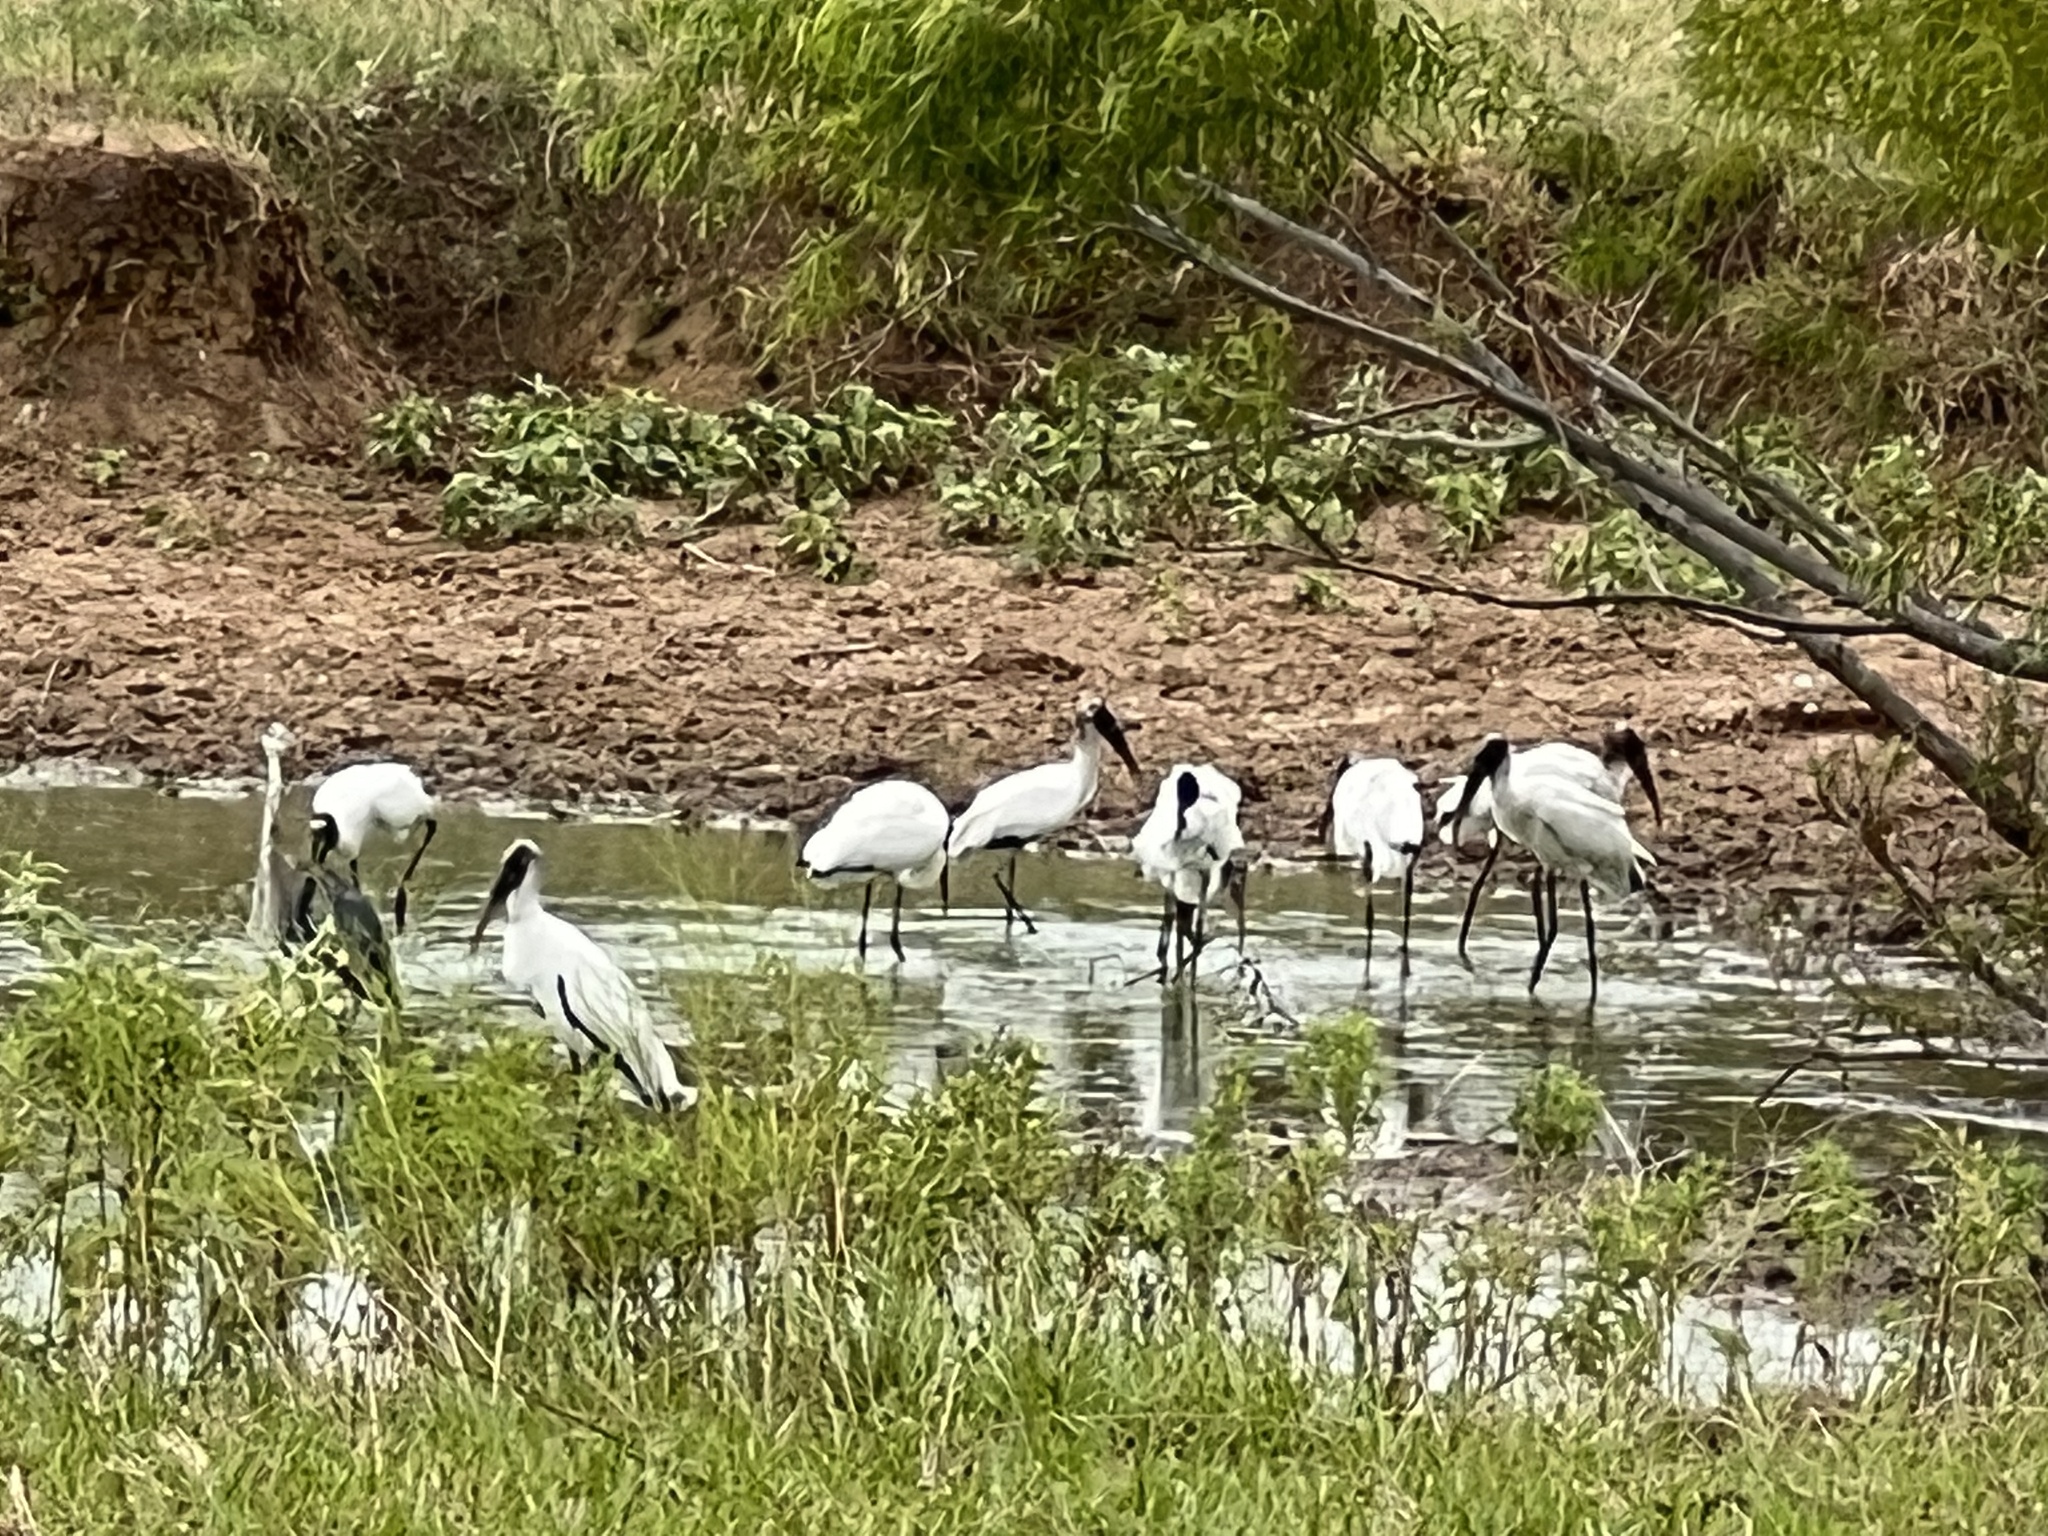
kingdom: Animalia
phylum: Chordata
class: Aves
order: Ciconiiformes
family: Ciconiidae
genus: Mycteria
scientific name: Mycteria americana
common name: Wood stork
